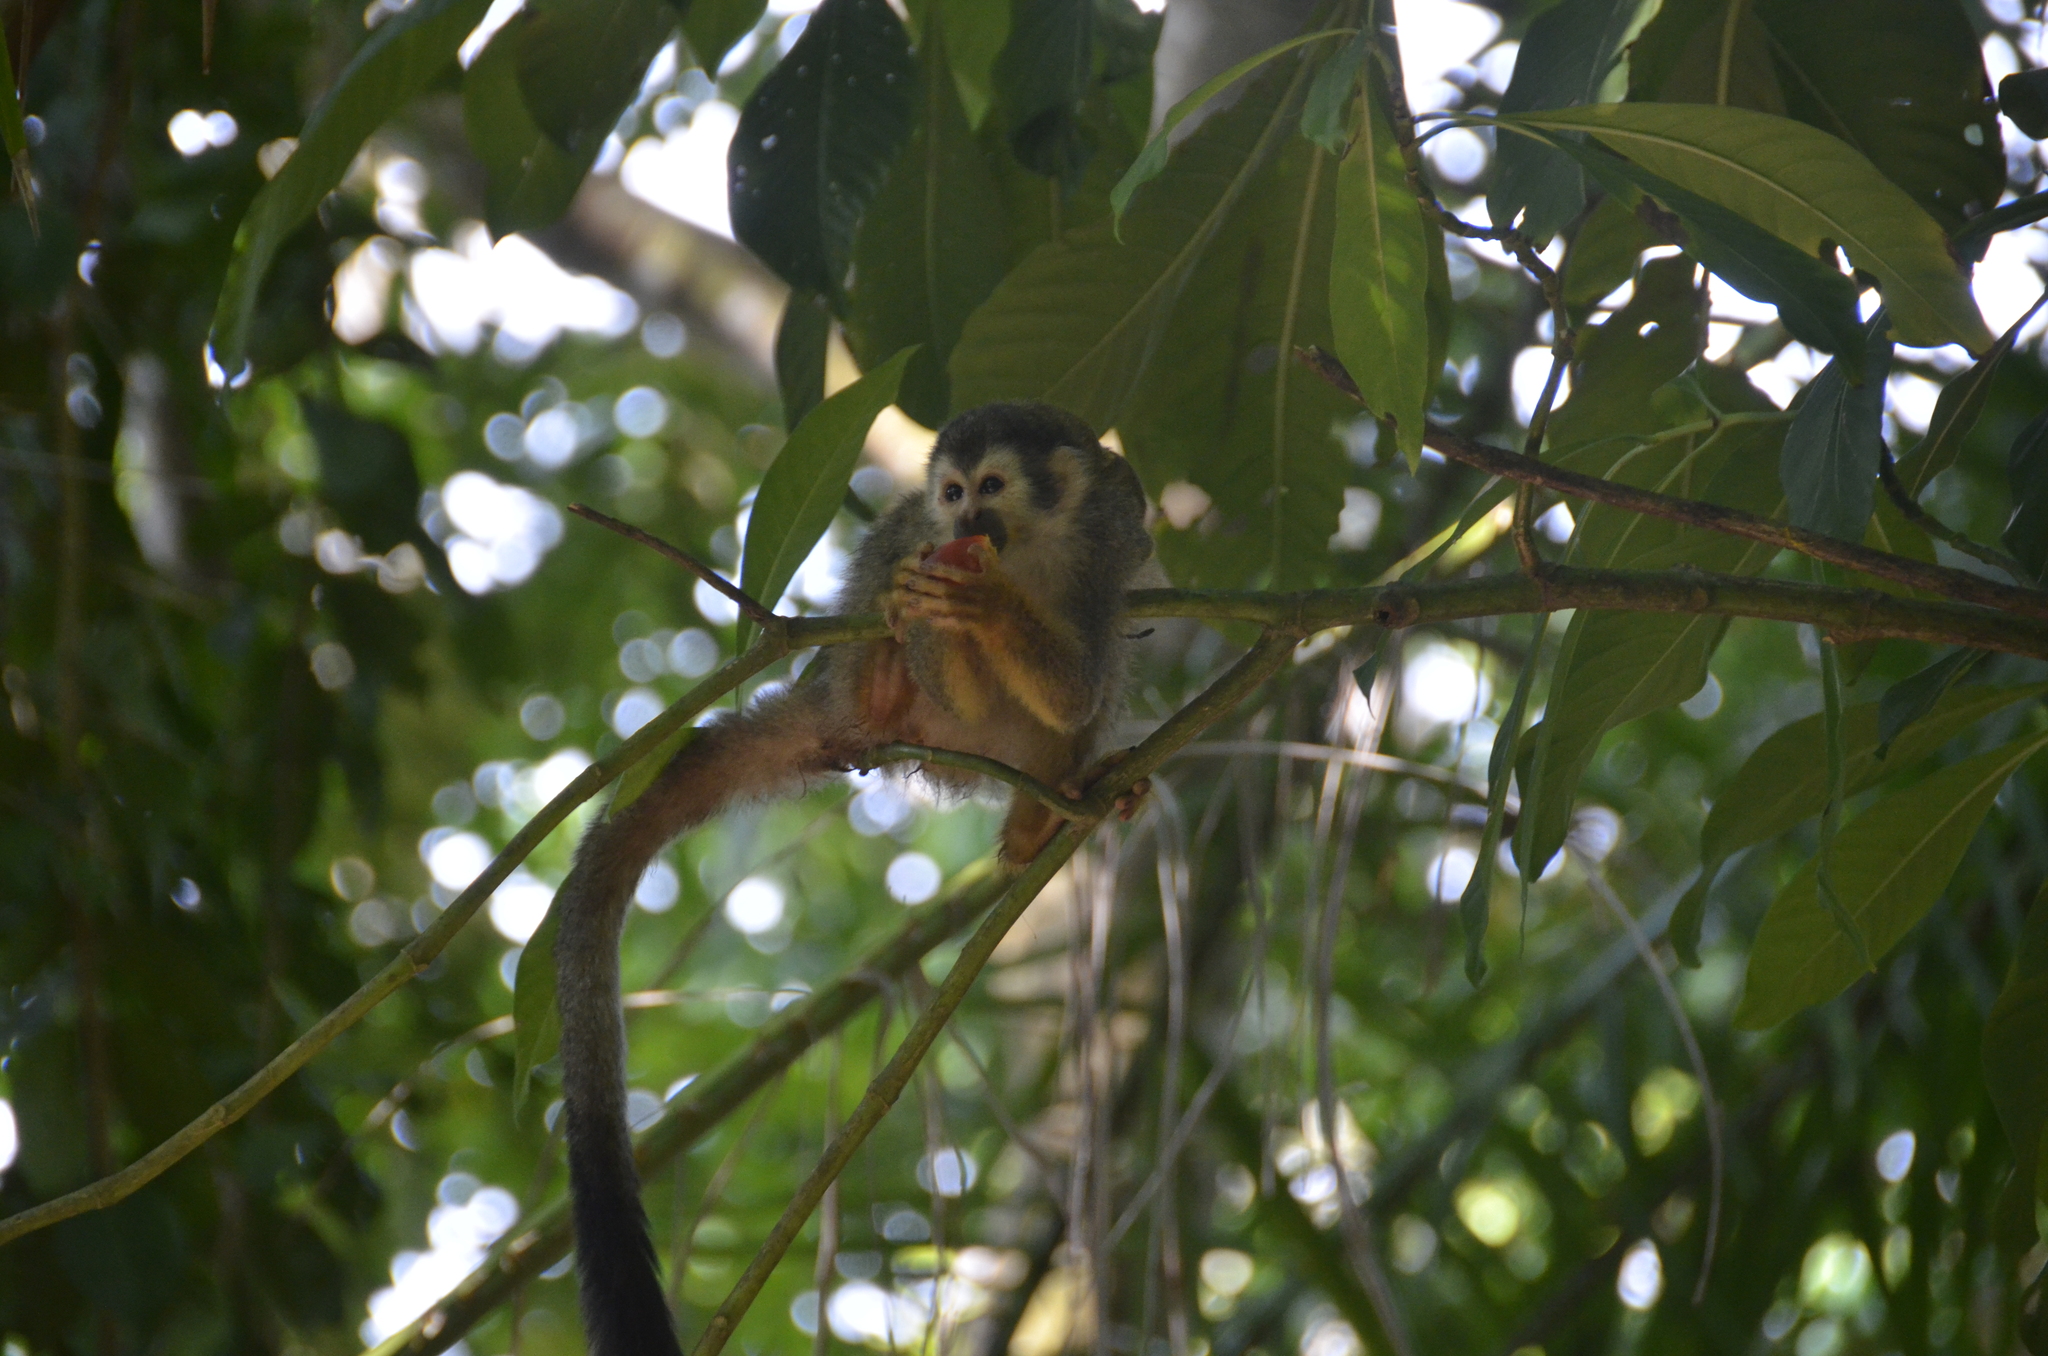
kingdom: Animalia
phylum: Chordata
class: Mammalia
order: Primates
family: Cebidae
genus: Saimiri
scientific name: Saimiri oerstedii
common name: Central american squirrel monkey
